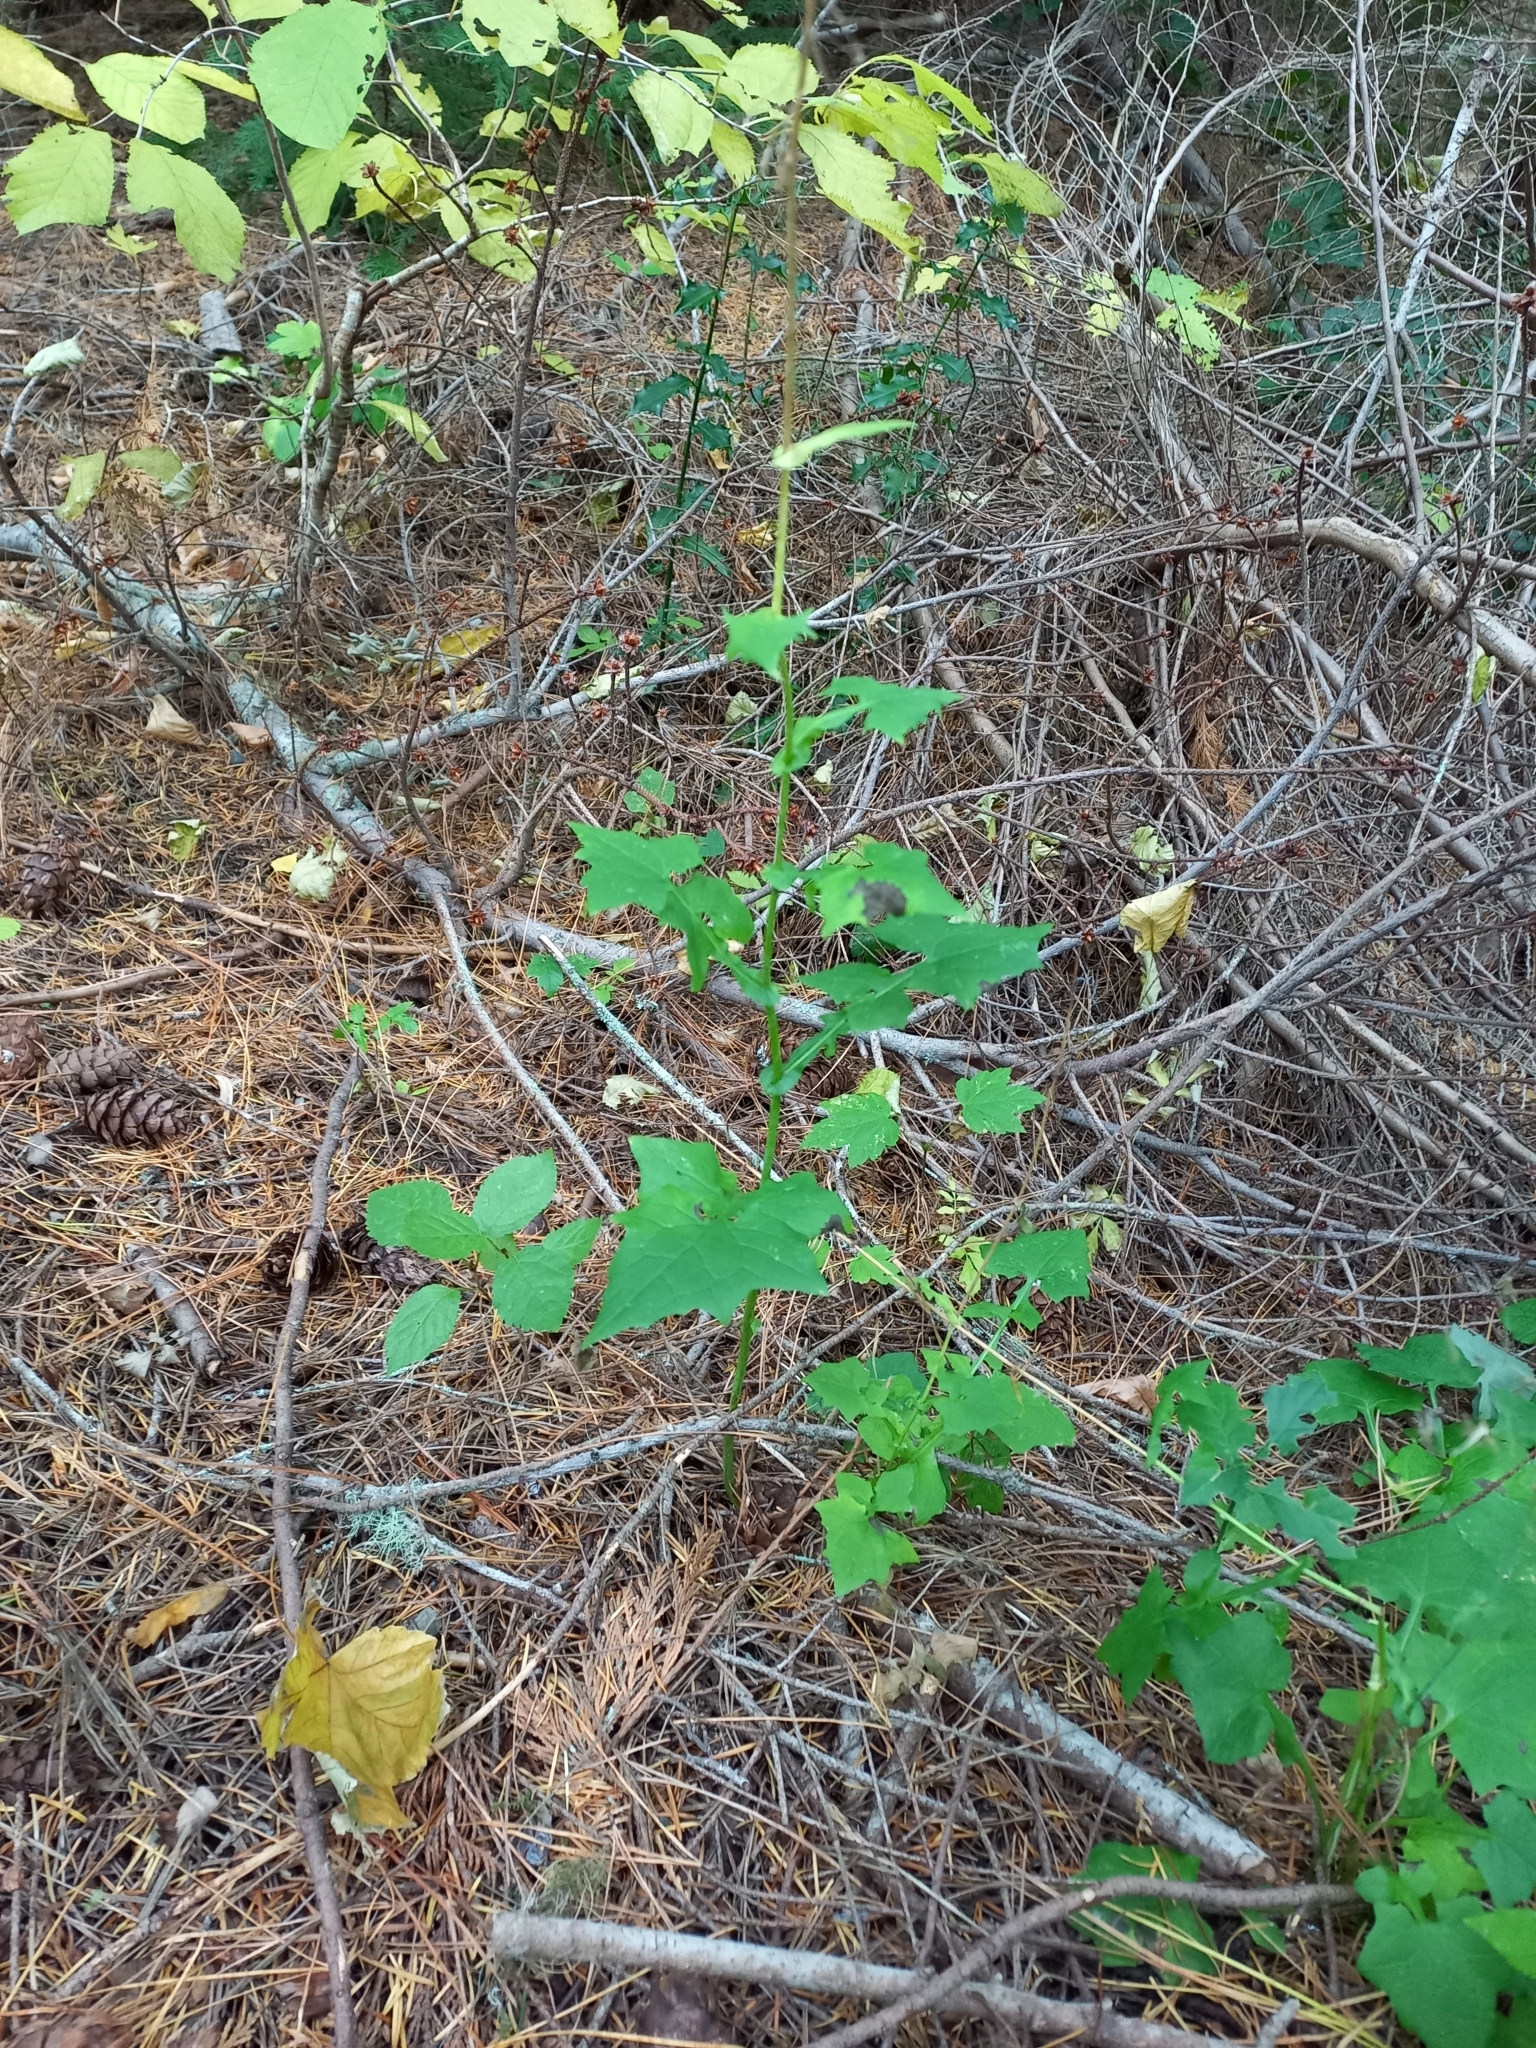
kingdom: Plantae
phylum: Tracheophyta
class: Magnoliopsida
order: Asterales
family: Asteraceae
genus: Mycelis
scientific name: Mycelis muralis
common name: Wall lettuce
